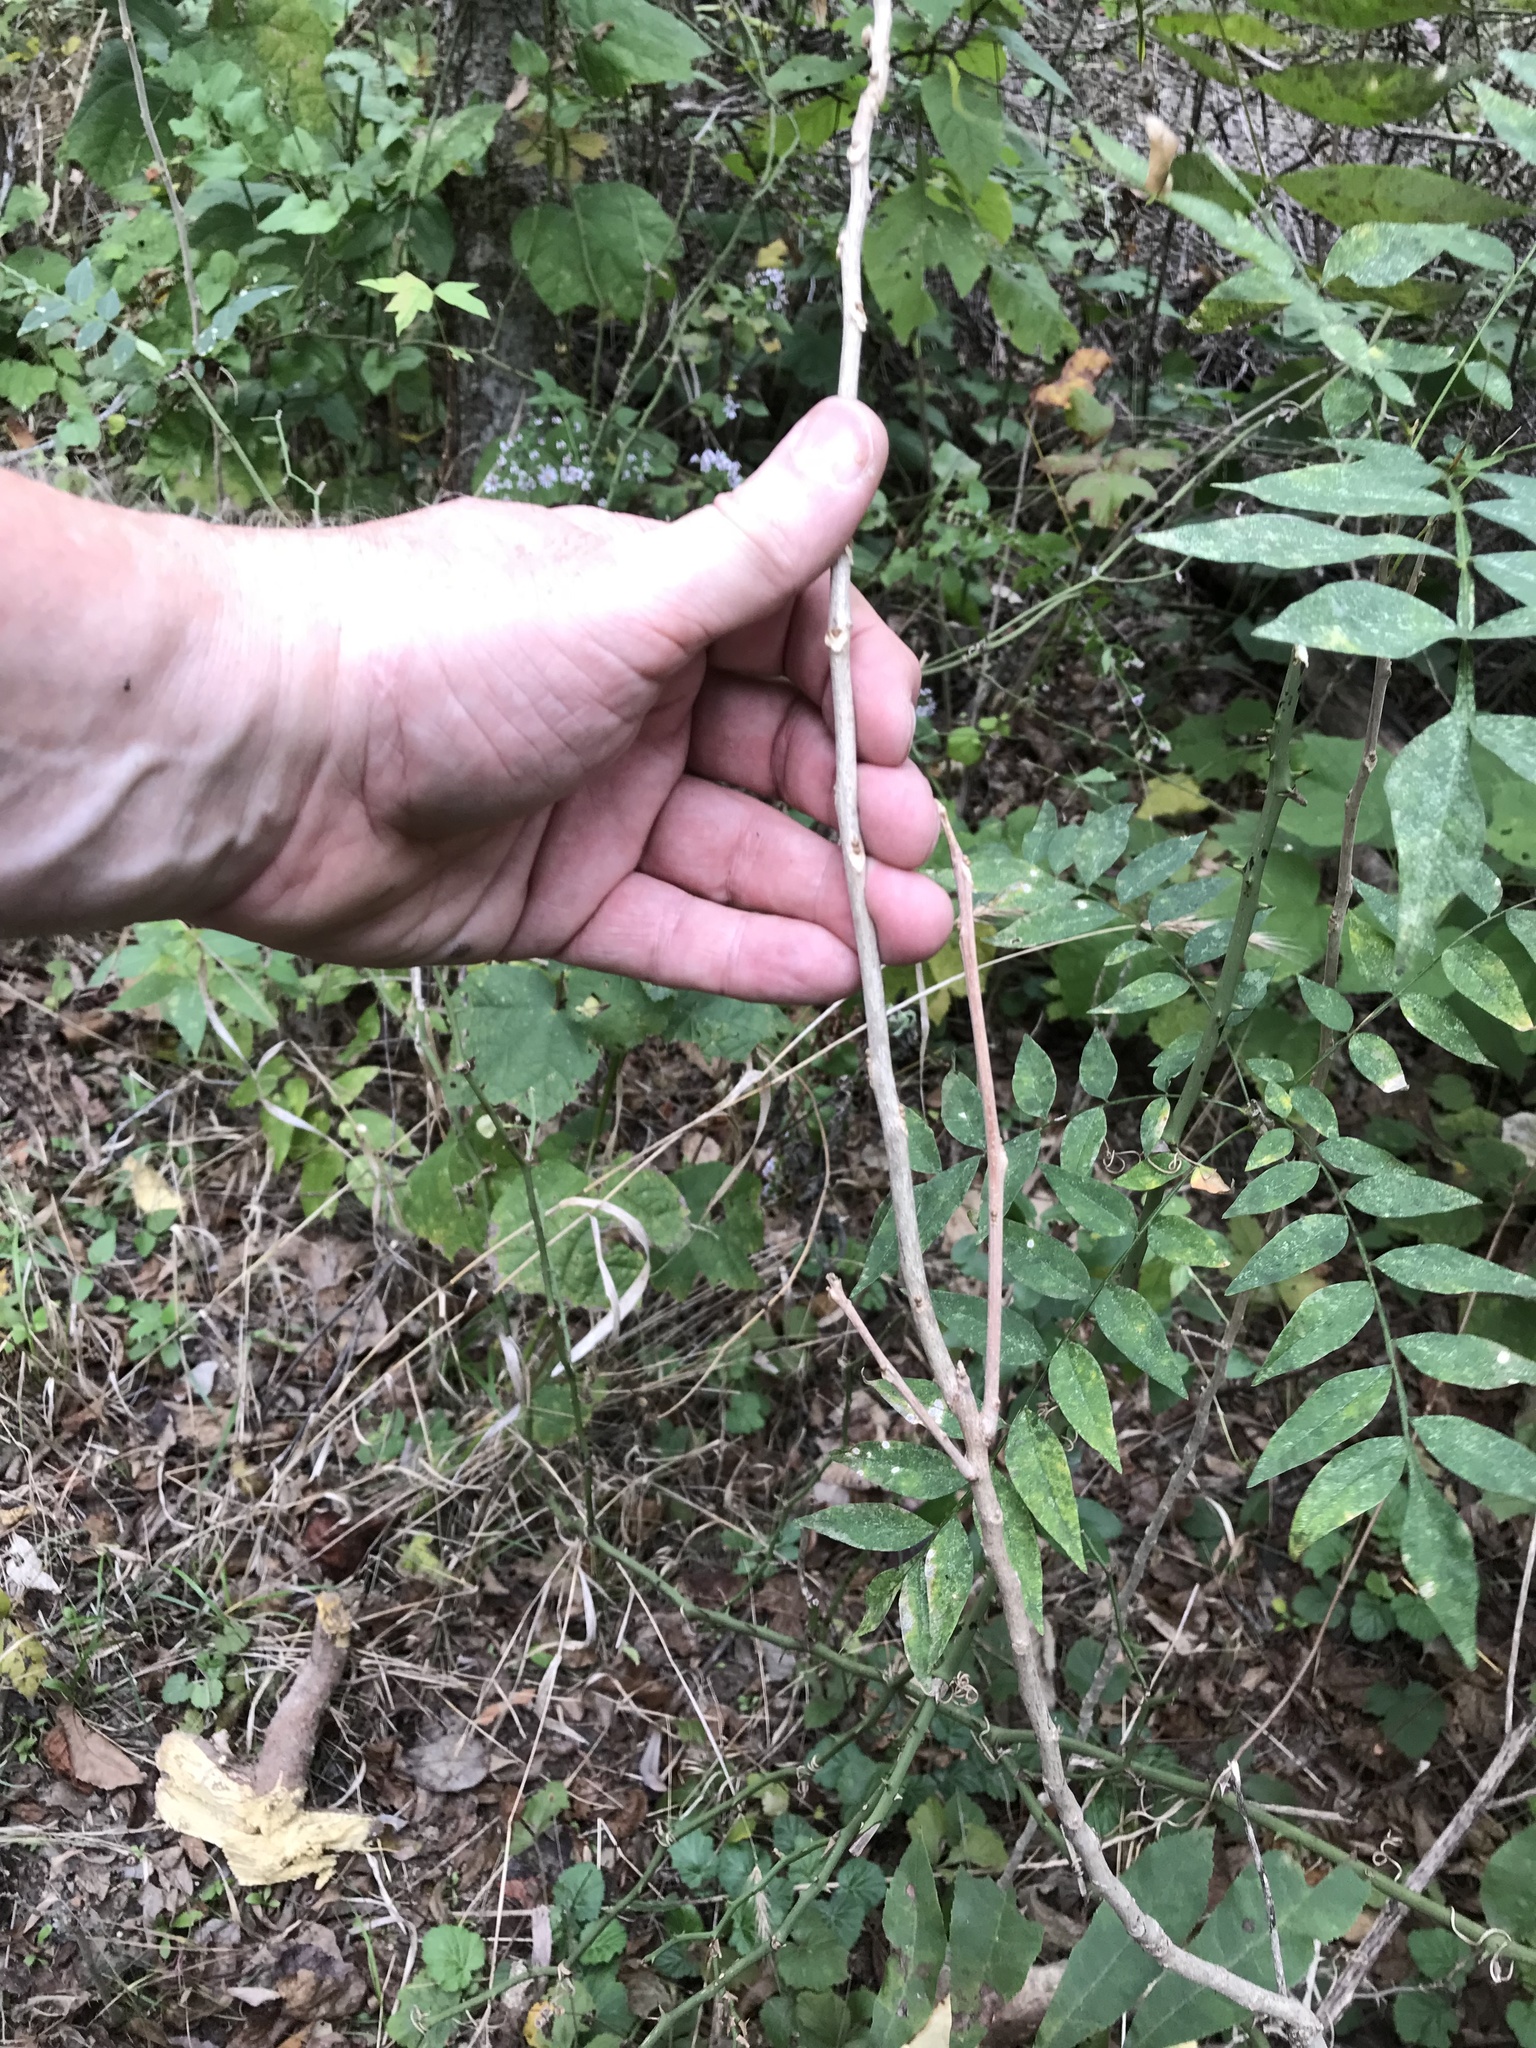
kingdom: Plantae
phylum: Tracheophyta
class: Magnoliopsida
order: Sapindales
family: Sapindaceae
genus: Sapindus
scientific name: Sapindus drummondii
